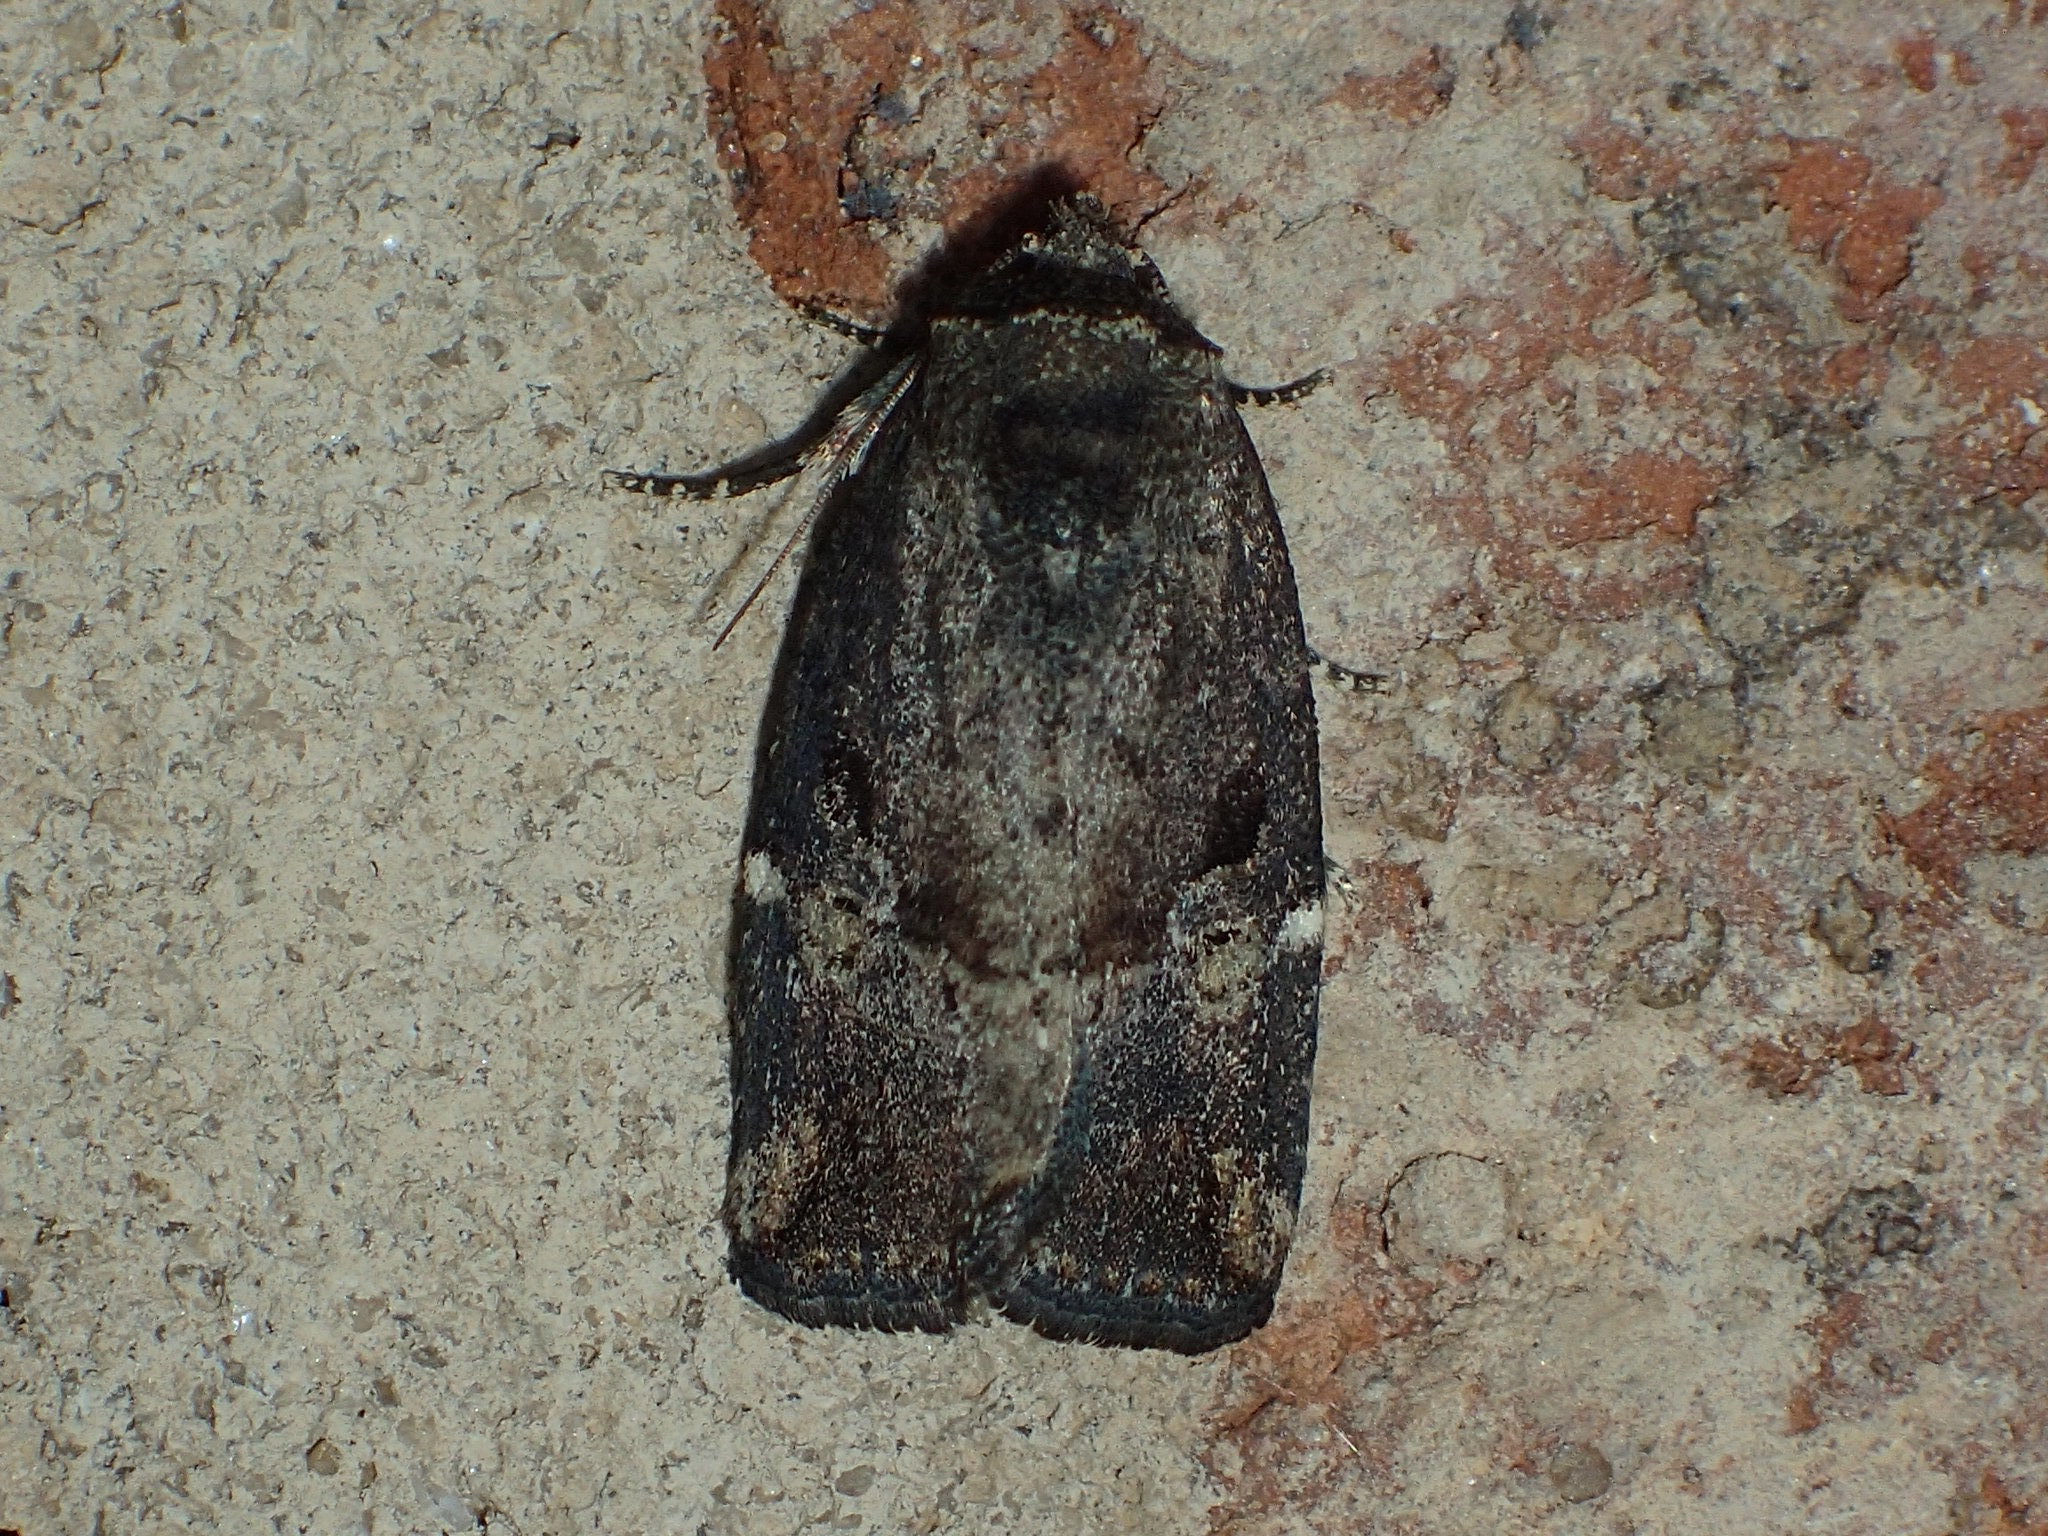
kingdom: Animalia
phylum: Arthropoda
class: Insecta
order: Lepidoptera
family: Noctuidae
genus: Elaphria
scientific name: Elaphria versicolor
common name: Fir harlequin
